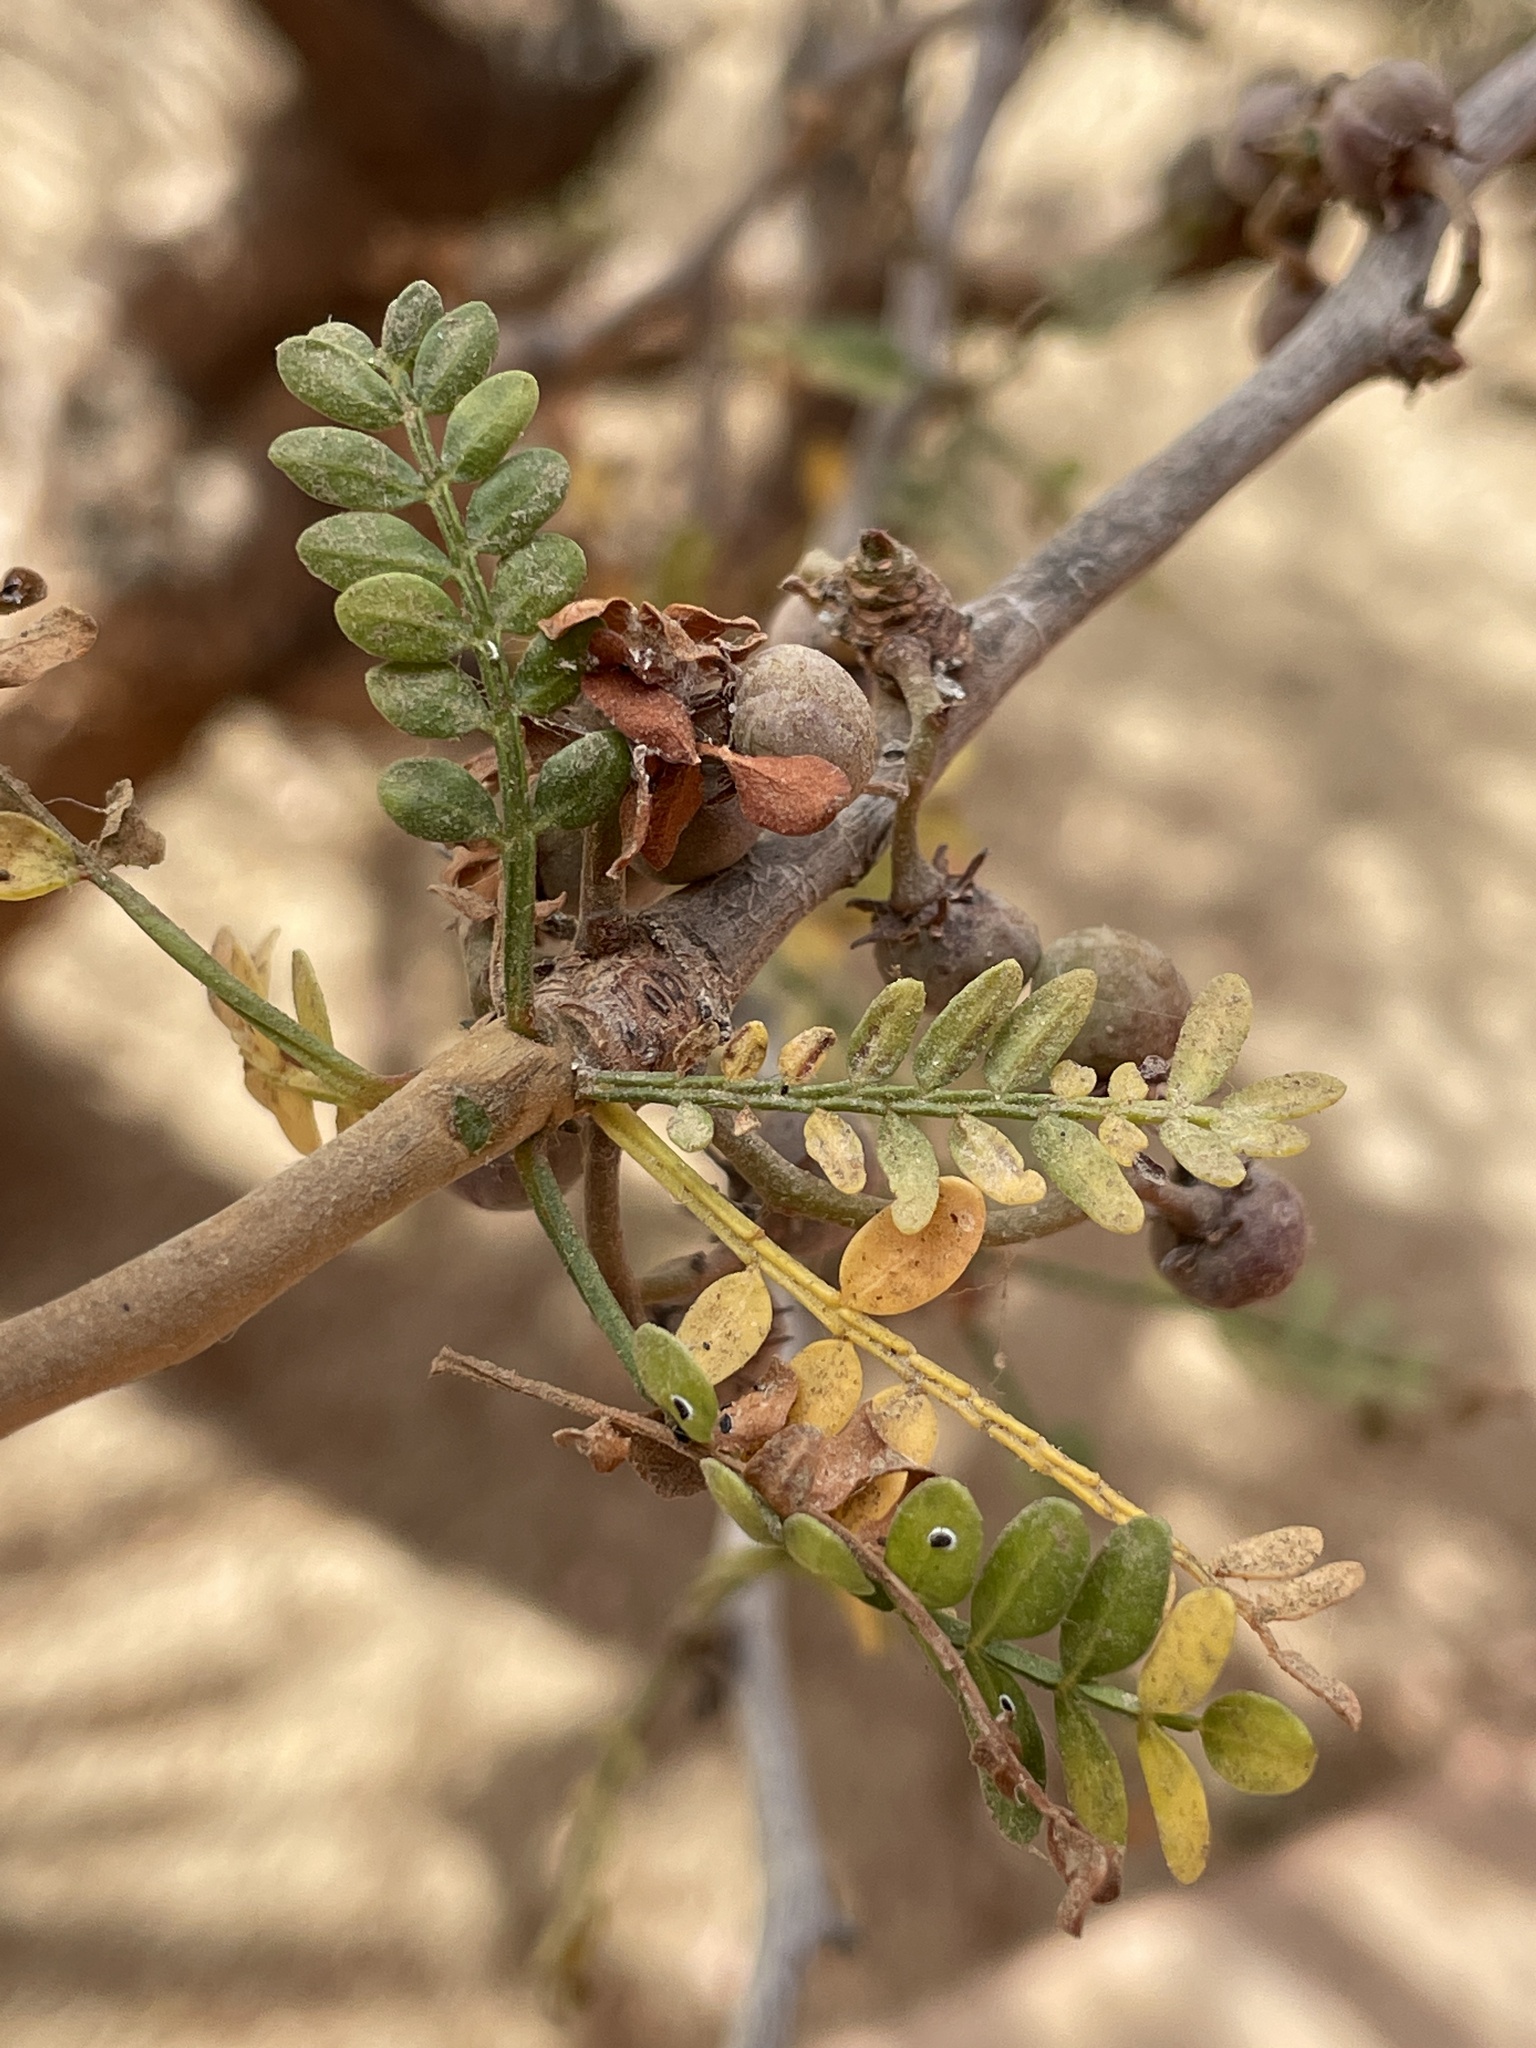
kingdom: Plantae
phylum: Tracheophyta
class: Magnoliopsida
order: Sapindales
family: Burseraceae
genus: Bursera
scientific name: Bursera microphylla
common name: Elephant tree
